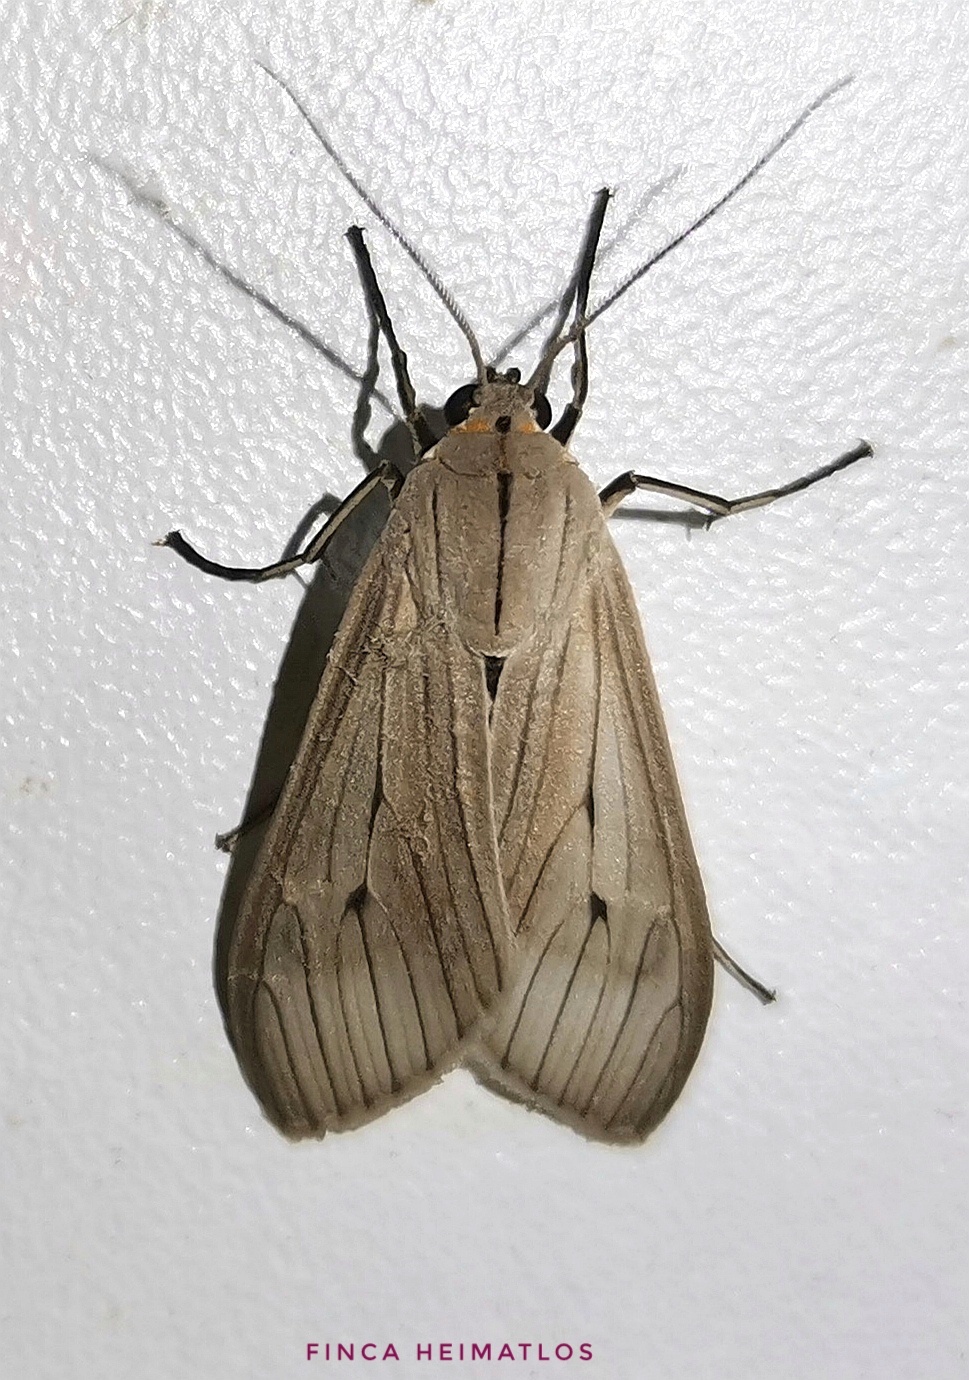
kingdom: Animalia
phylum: Arthropoda
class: Insecta
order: Lepidoptera
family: Erebidae
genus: Arctagyrta
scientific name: Arctagyrta Agaraea semivitrea
